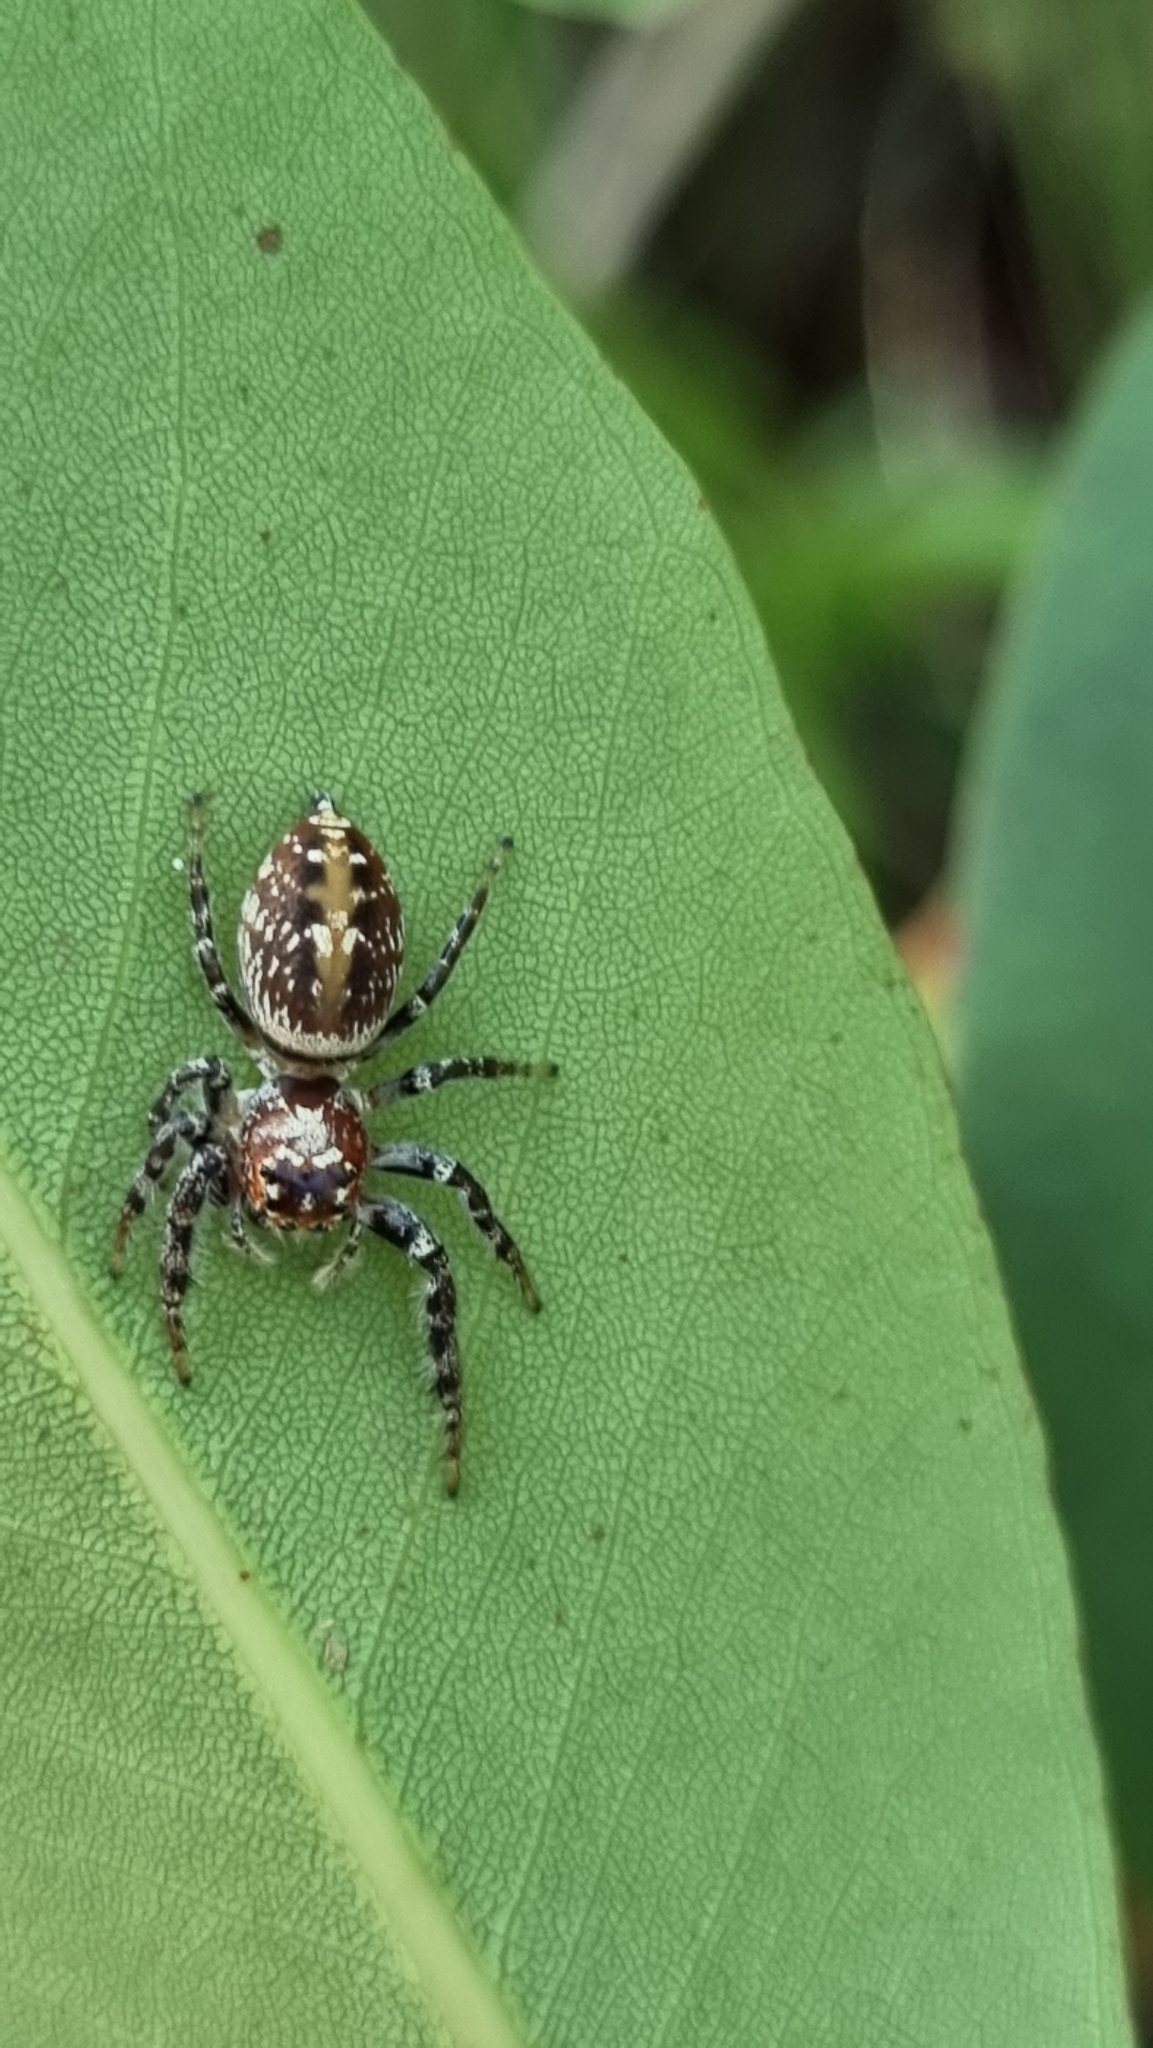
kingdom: Animalia
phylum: Arthropoda
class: Arachnida
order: Araneae
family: Salticidae
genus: Opisthoncus
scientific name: Opisthoncus quadratarius
